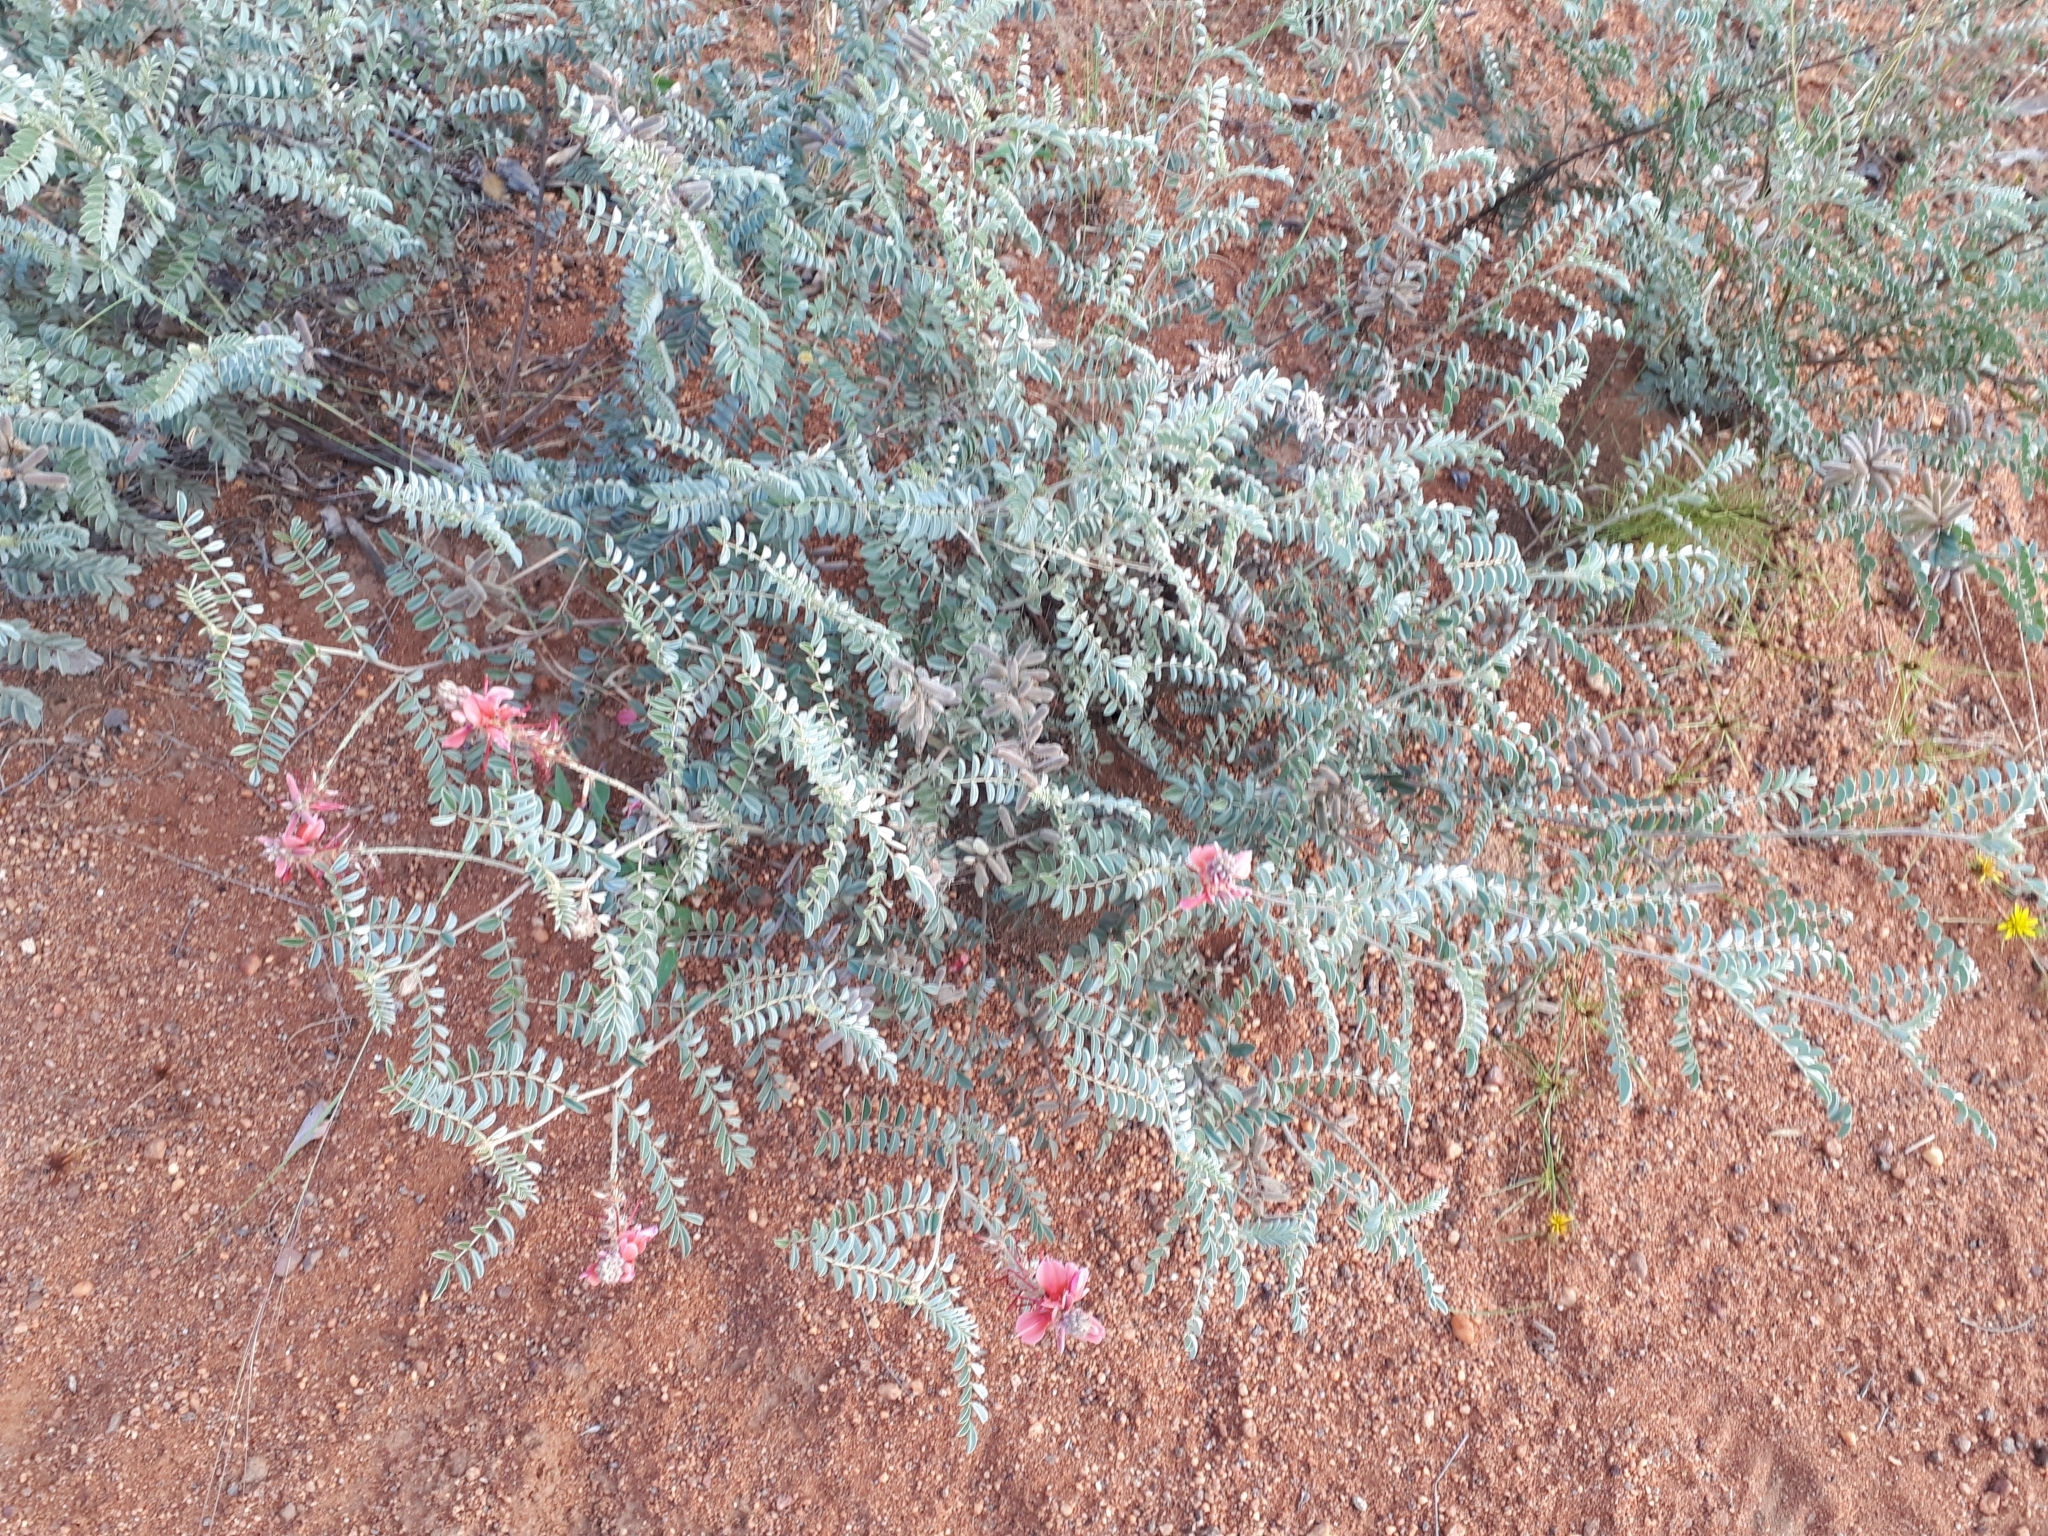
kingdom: Plantae
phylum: Tracheophyta
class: Magnoliopsida
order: Fabales
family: Fabaceae
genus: Indigofera
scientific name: Indigofera pongolana
